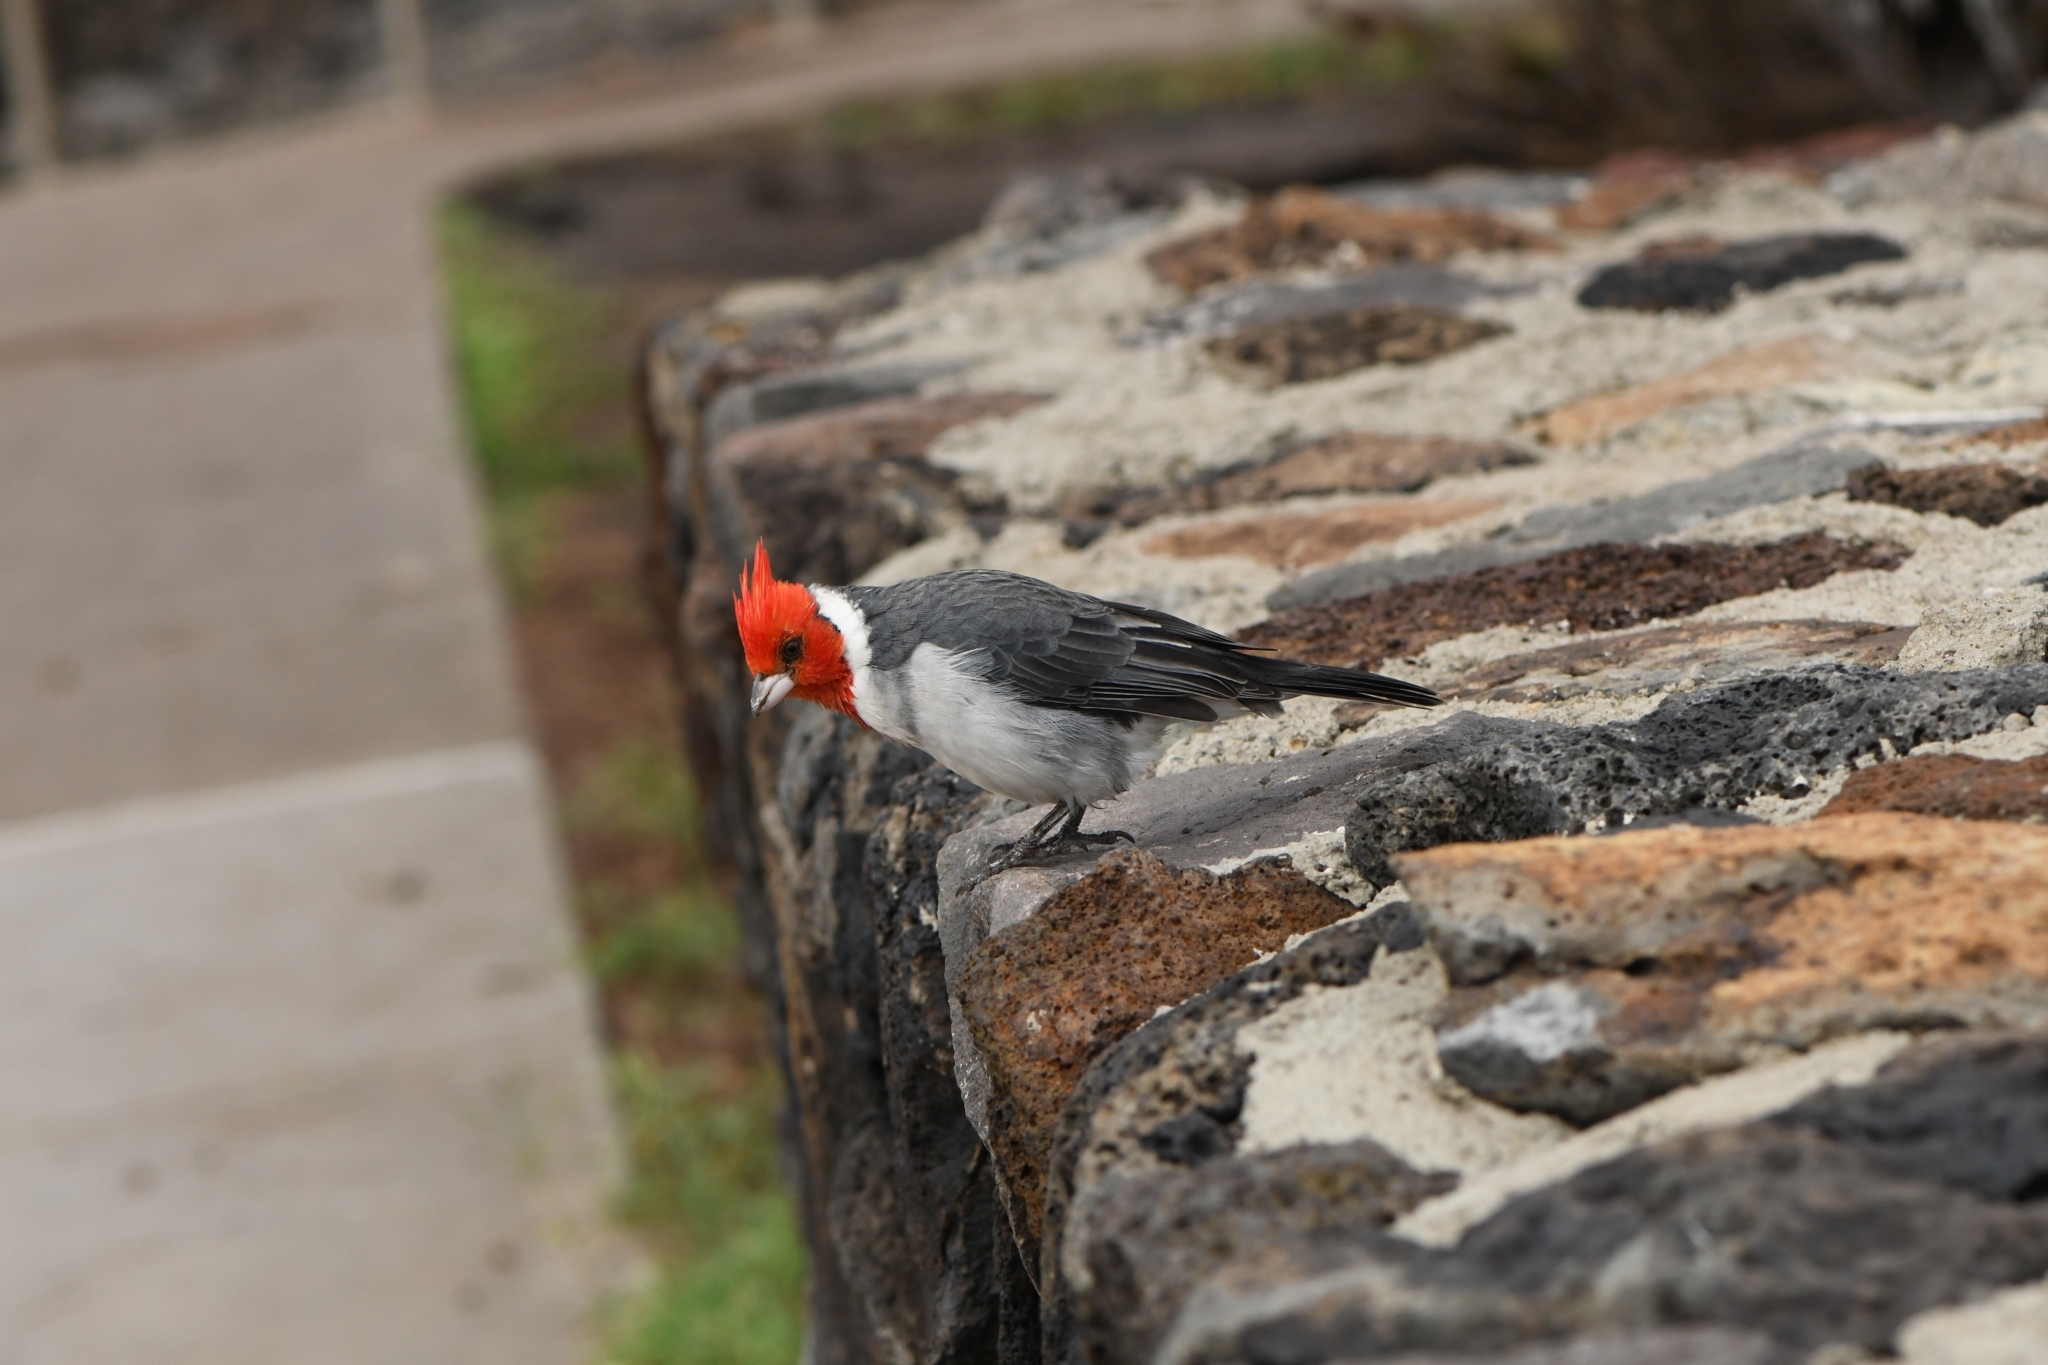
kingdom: Animalia
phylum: Chordata
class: Aves
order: Passeriformes
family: Thraupidae
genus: Paroaria
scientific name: Paroaria coronata
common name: Red-crested cardinal
